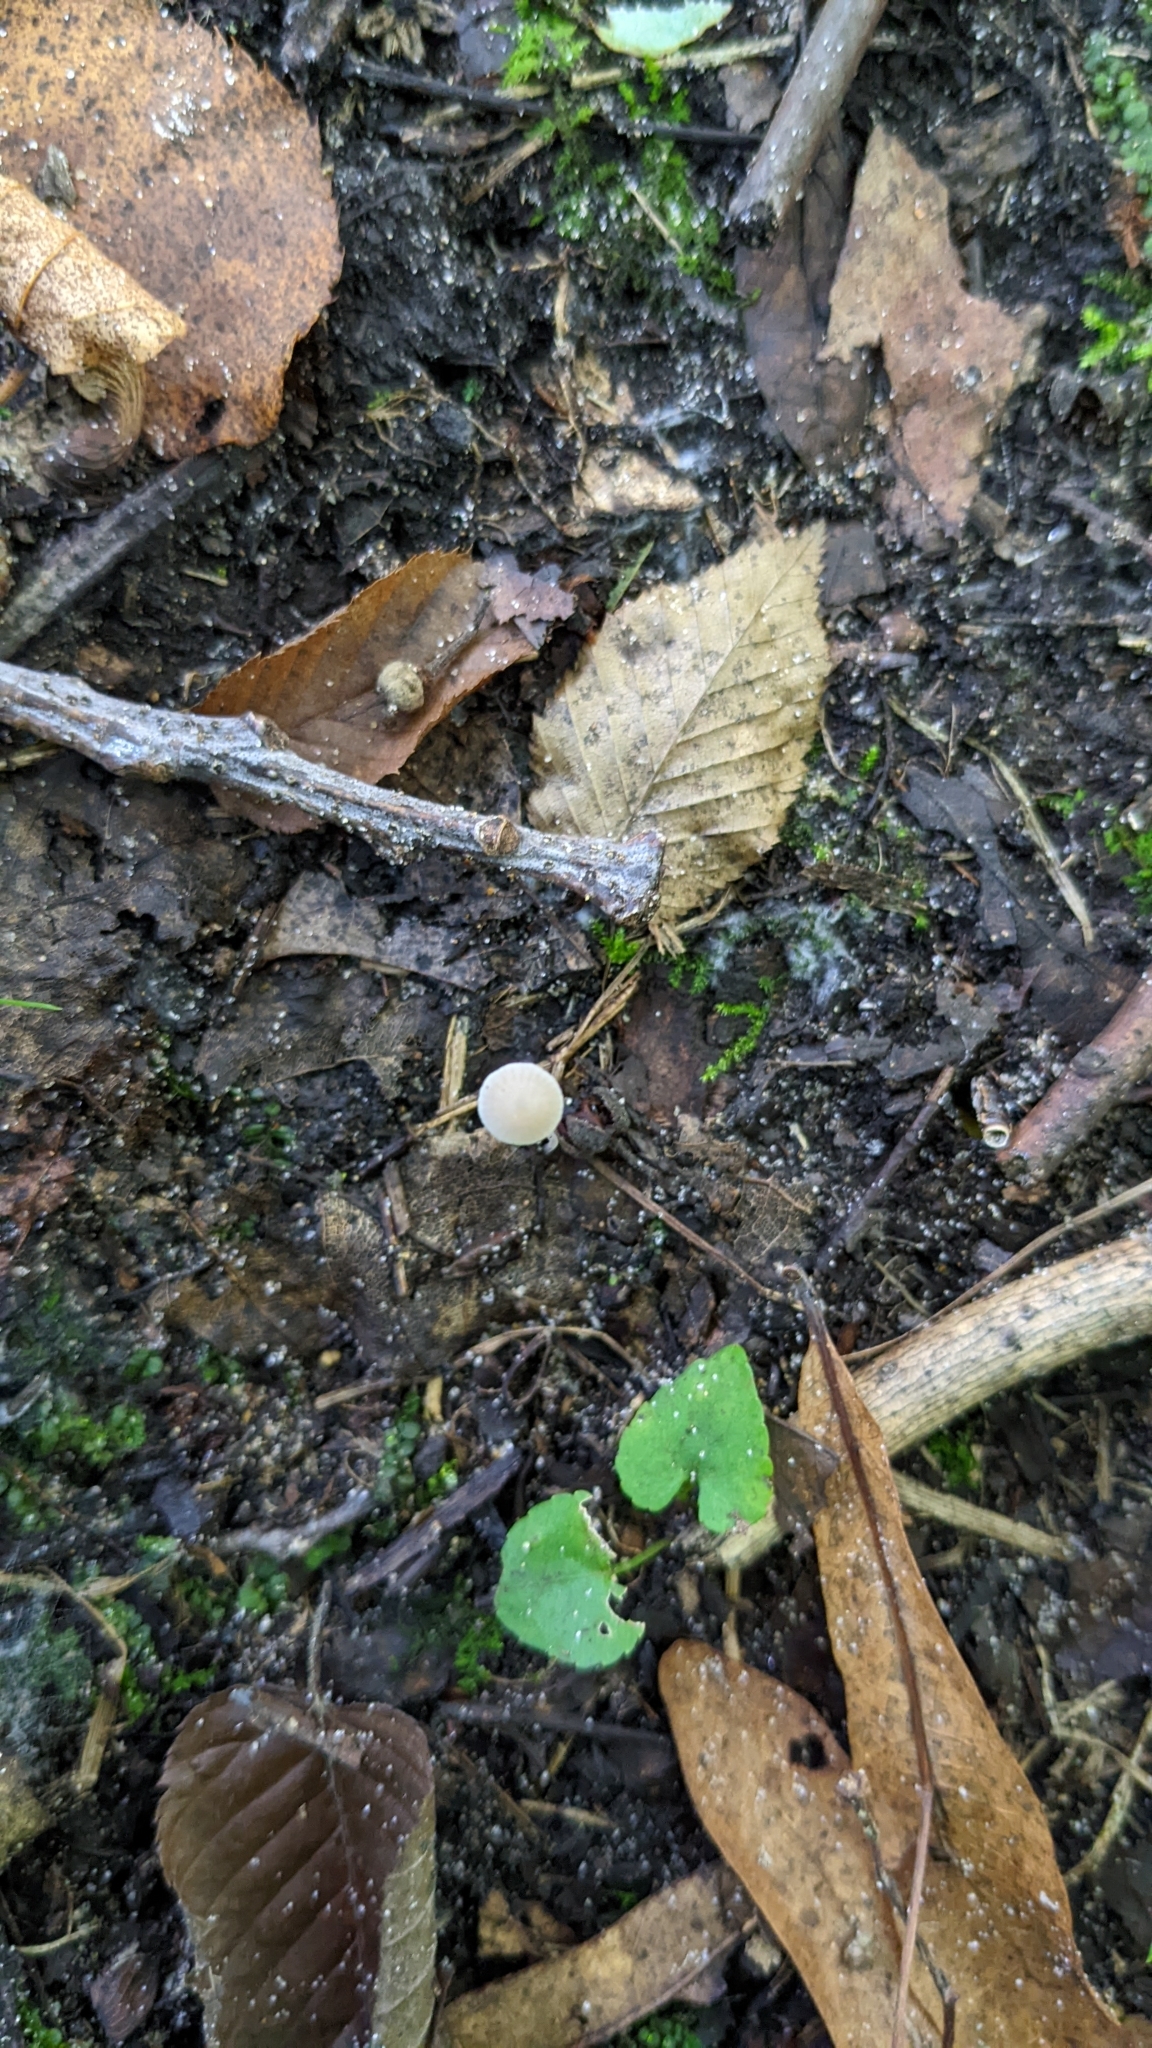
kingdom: Fungi
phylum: Basidiomycota
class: Agaricomycetes
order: Agaricales
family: Mycenaceae
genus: Mycena
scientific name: Mycena filopes
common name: Iodine bonnet
